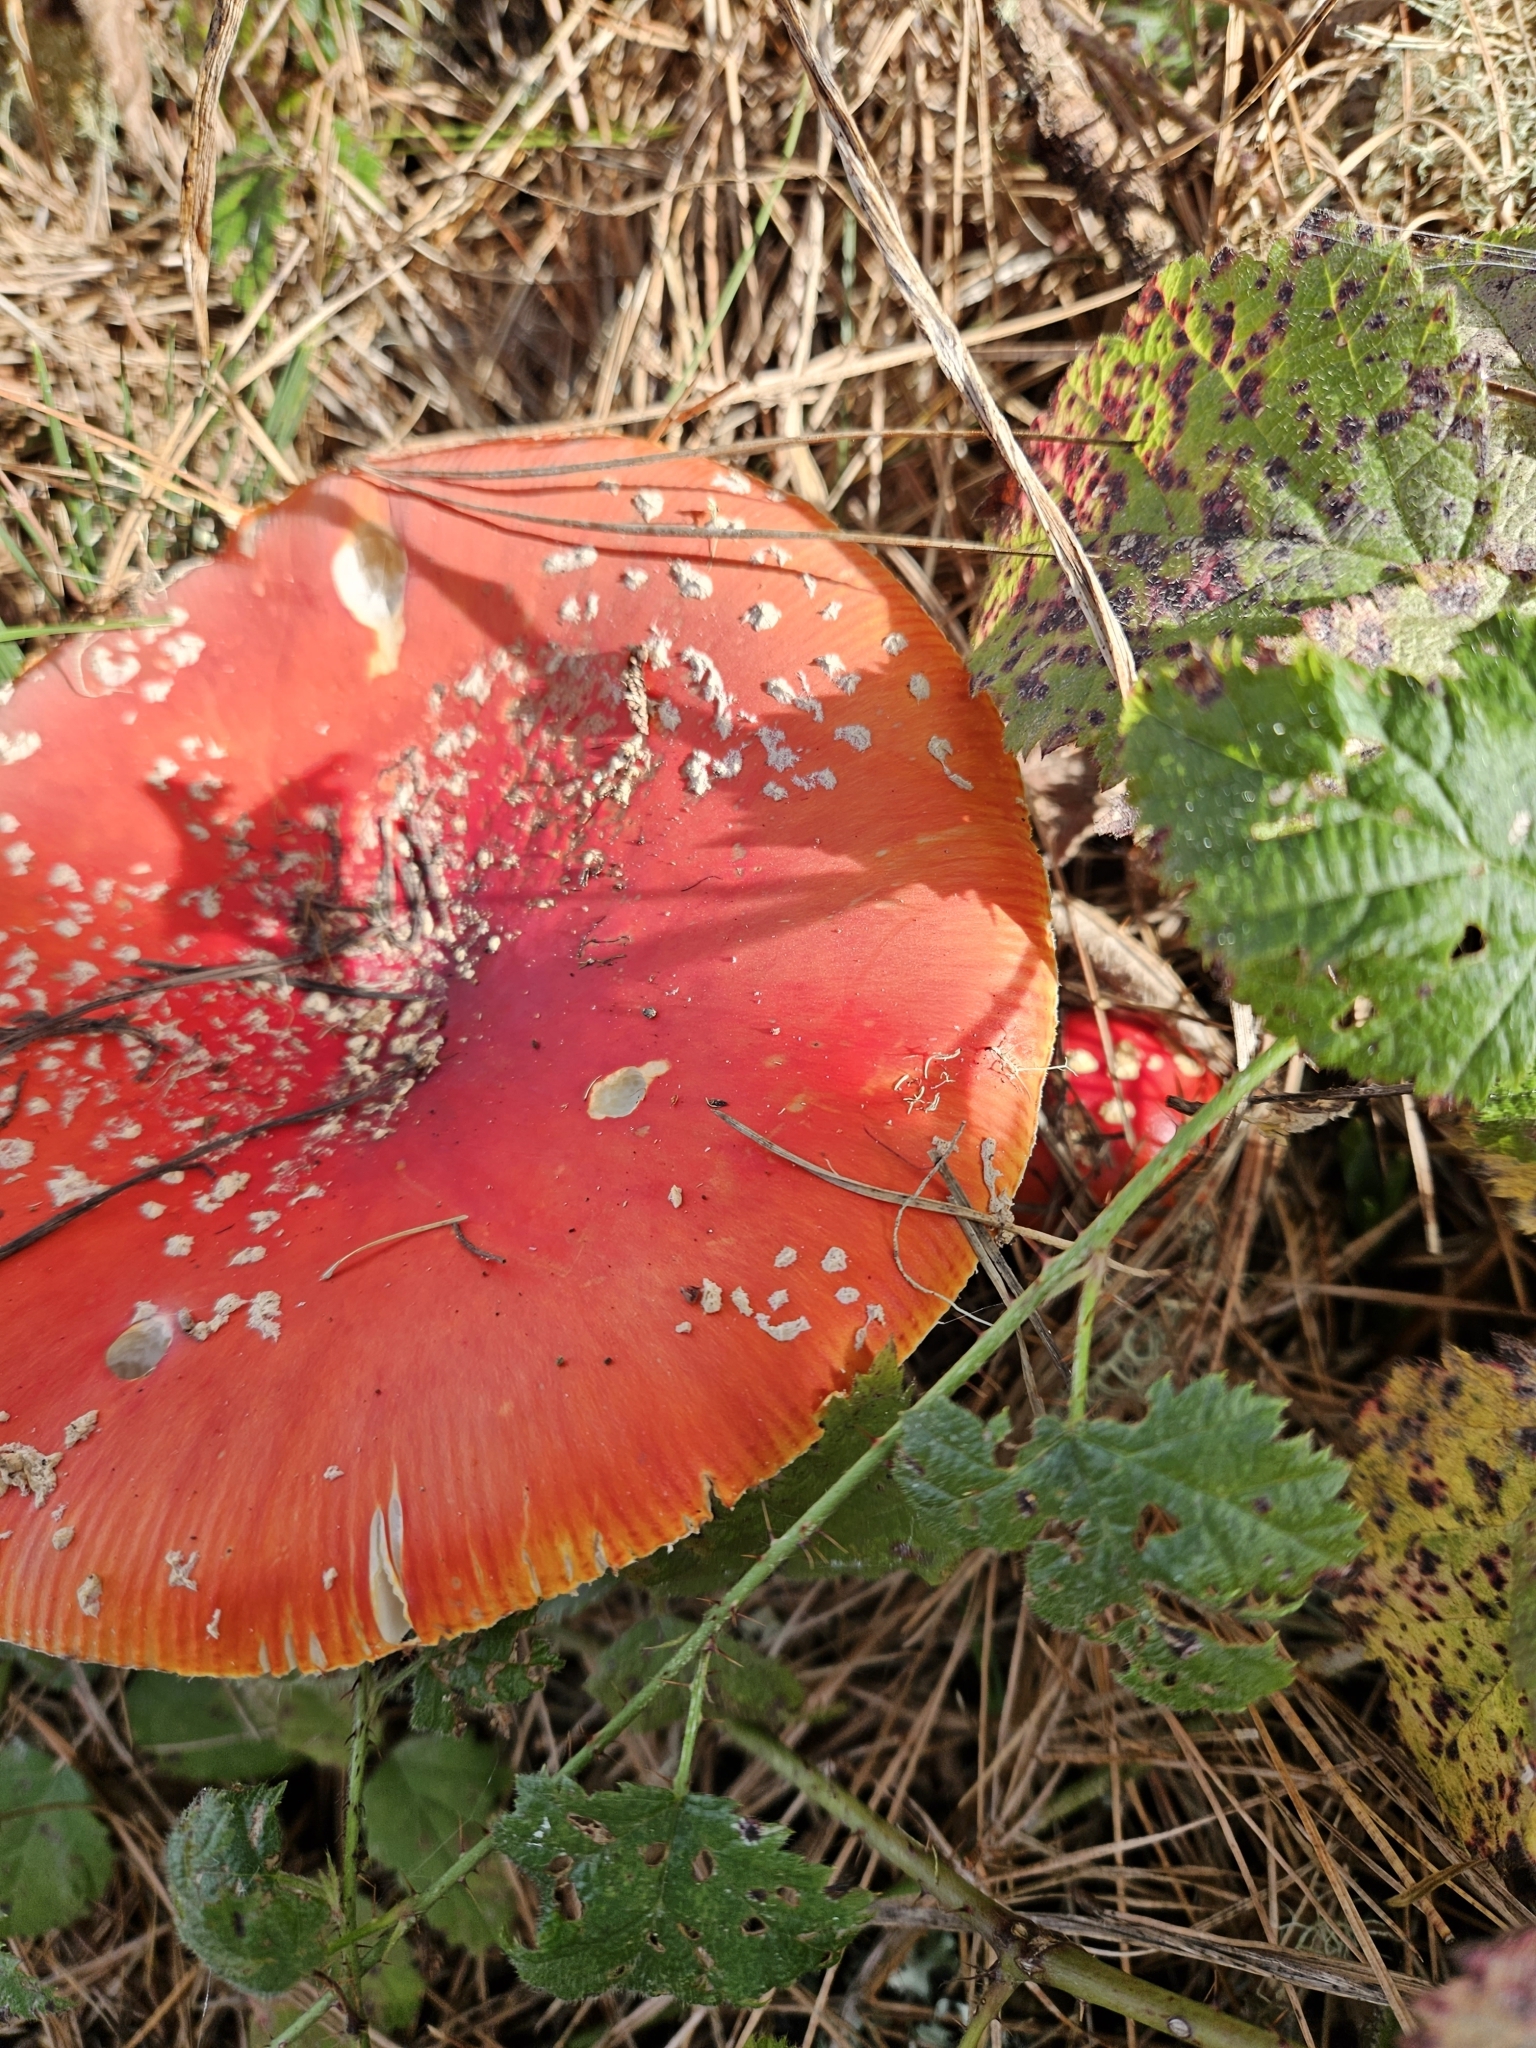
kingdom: Fungi
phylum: Basidiomycota
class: Agaricomycetes
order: Agaricales
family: Amanitaceae
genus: Amanita
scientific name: Amanita muscaria
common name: Fly agaric
